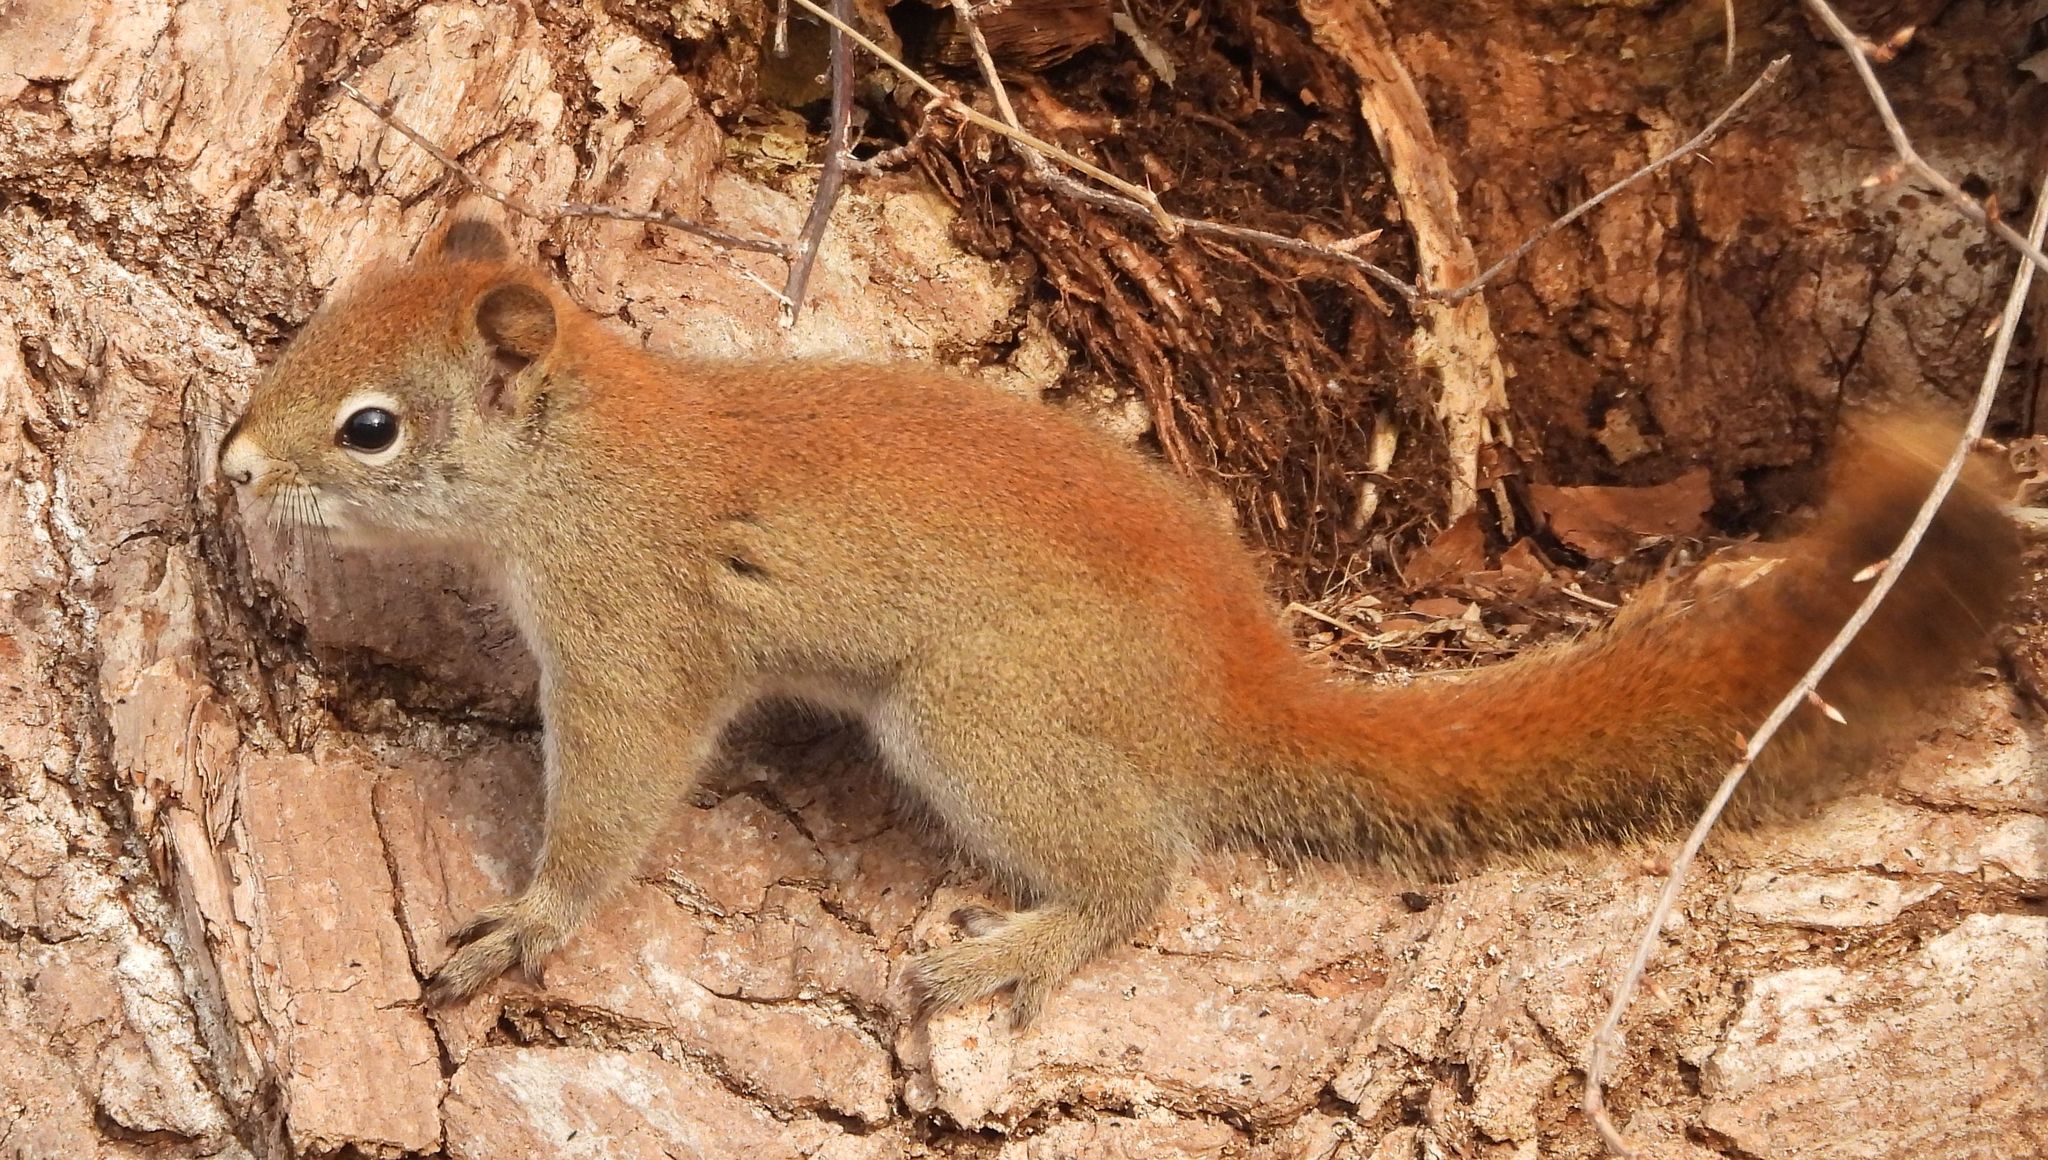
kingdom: Animalia
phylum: Chordata
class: Mammalia
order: Rodentia
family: Sciuridae
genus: Tamiasciurus
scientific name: Tamiasciurus hudsonicus
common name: Red squirrel
